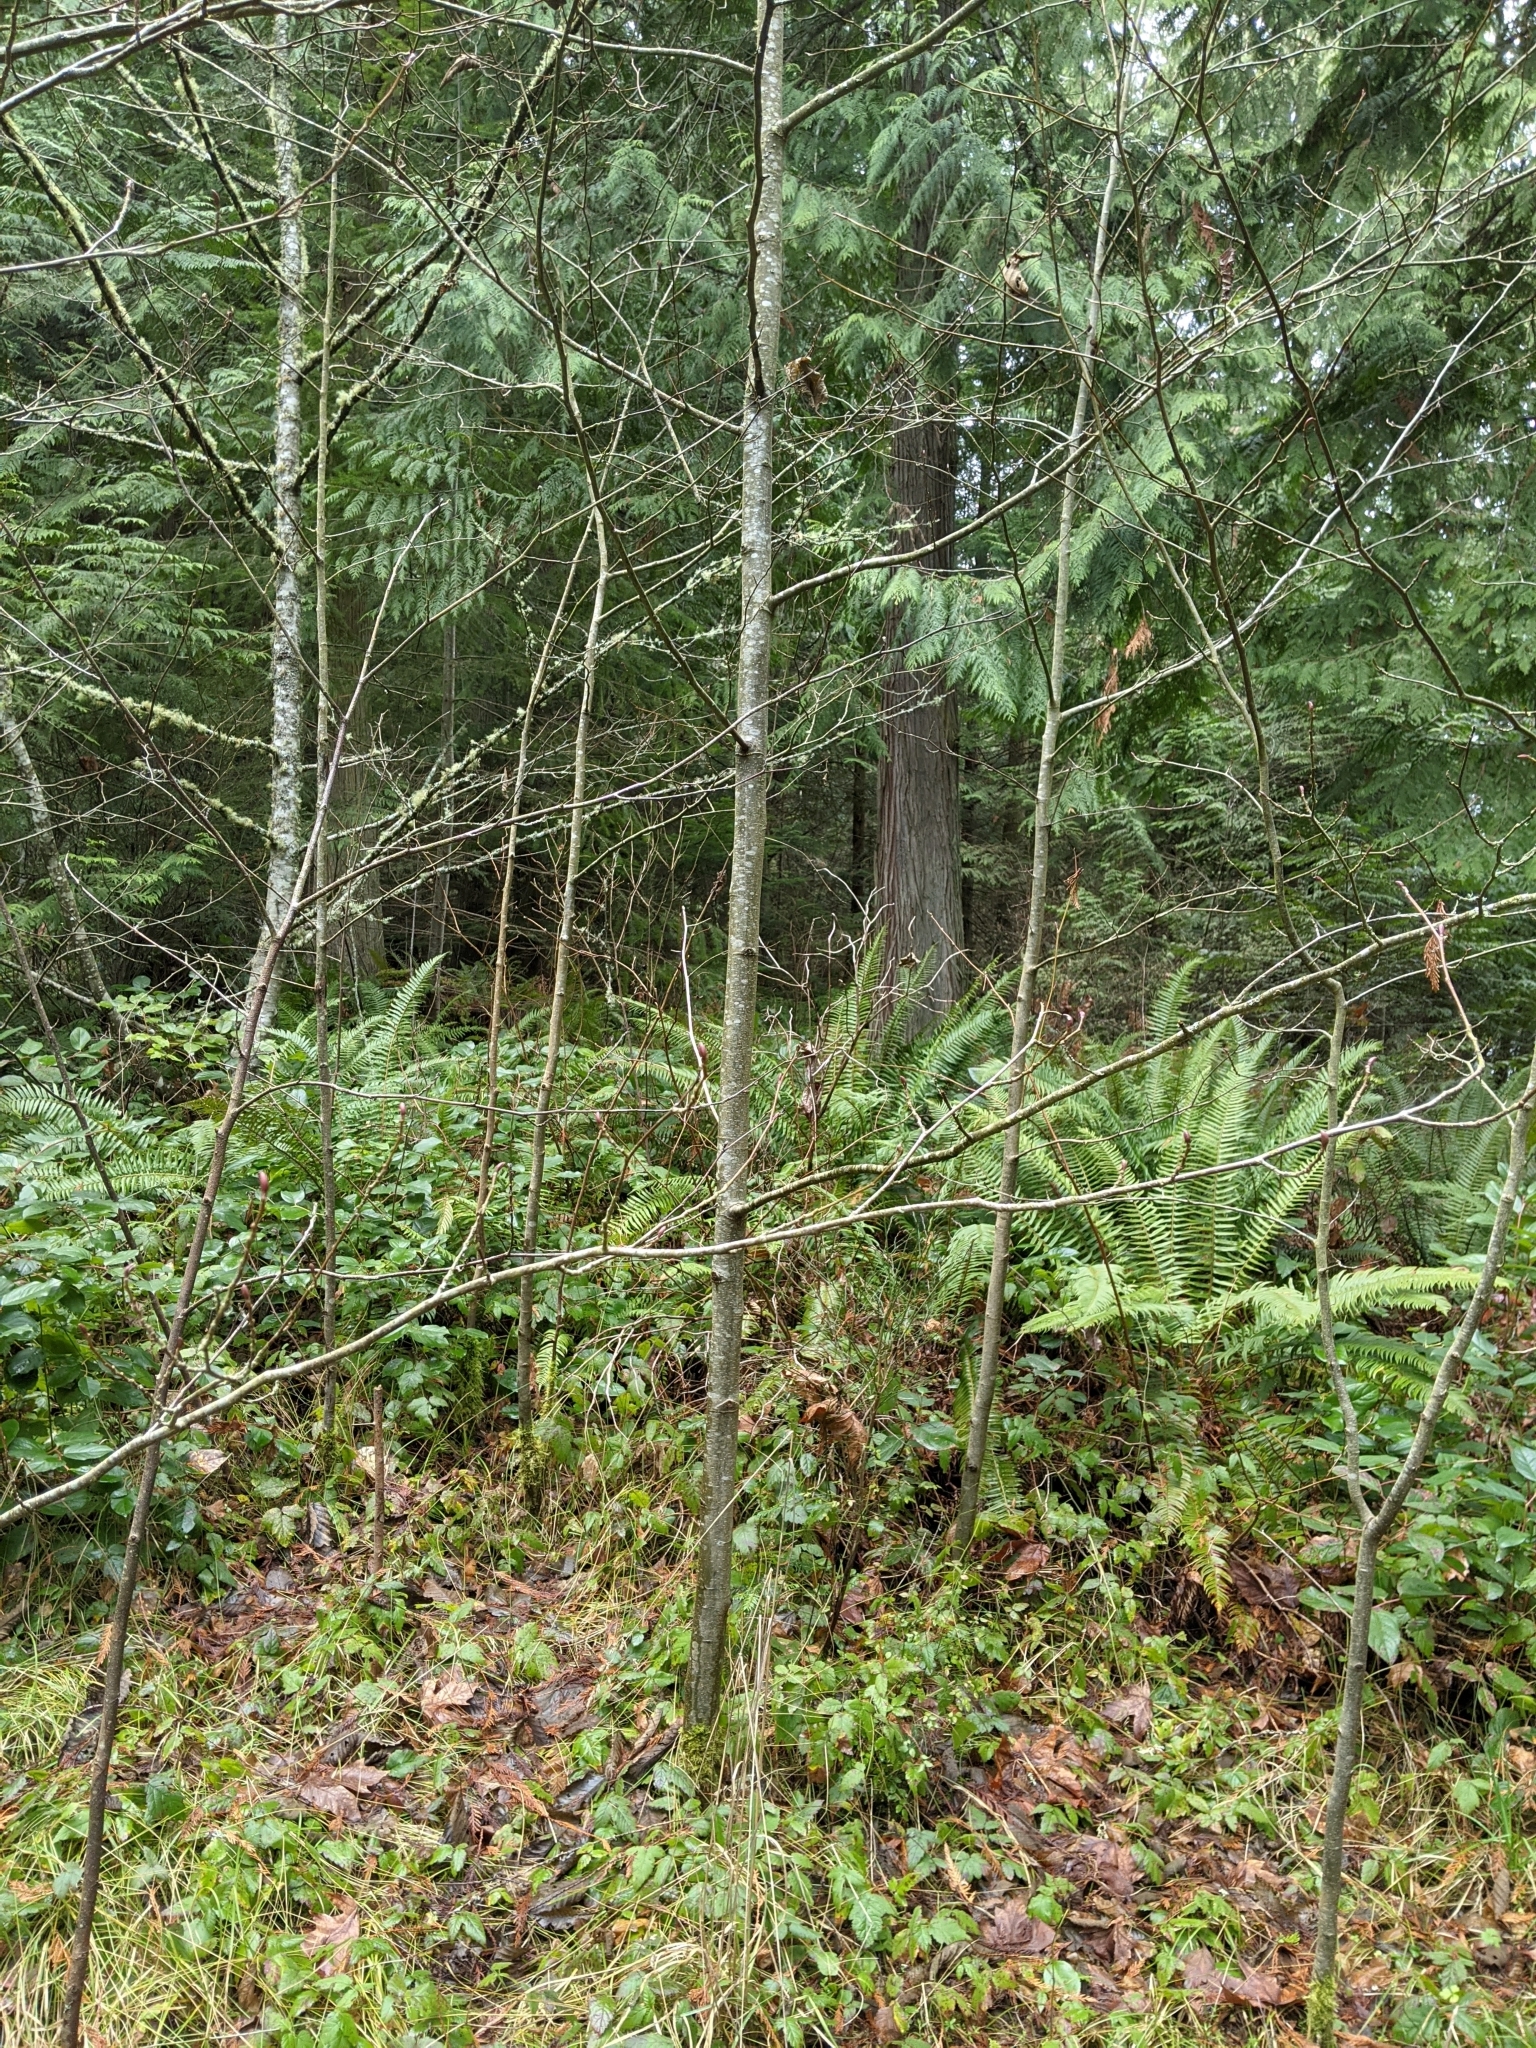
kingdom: Plantae
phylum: Tracheophyta
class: Magnoliopsida
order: Fagales
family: Betulaceae
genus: Alnus
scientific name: Alnus rubra
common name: Red alder
